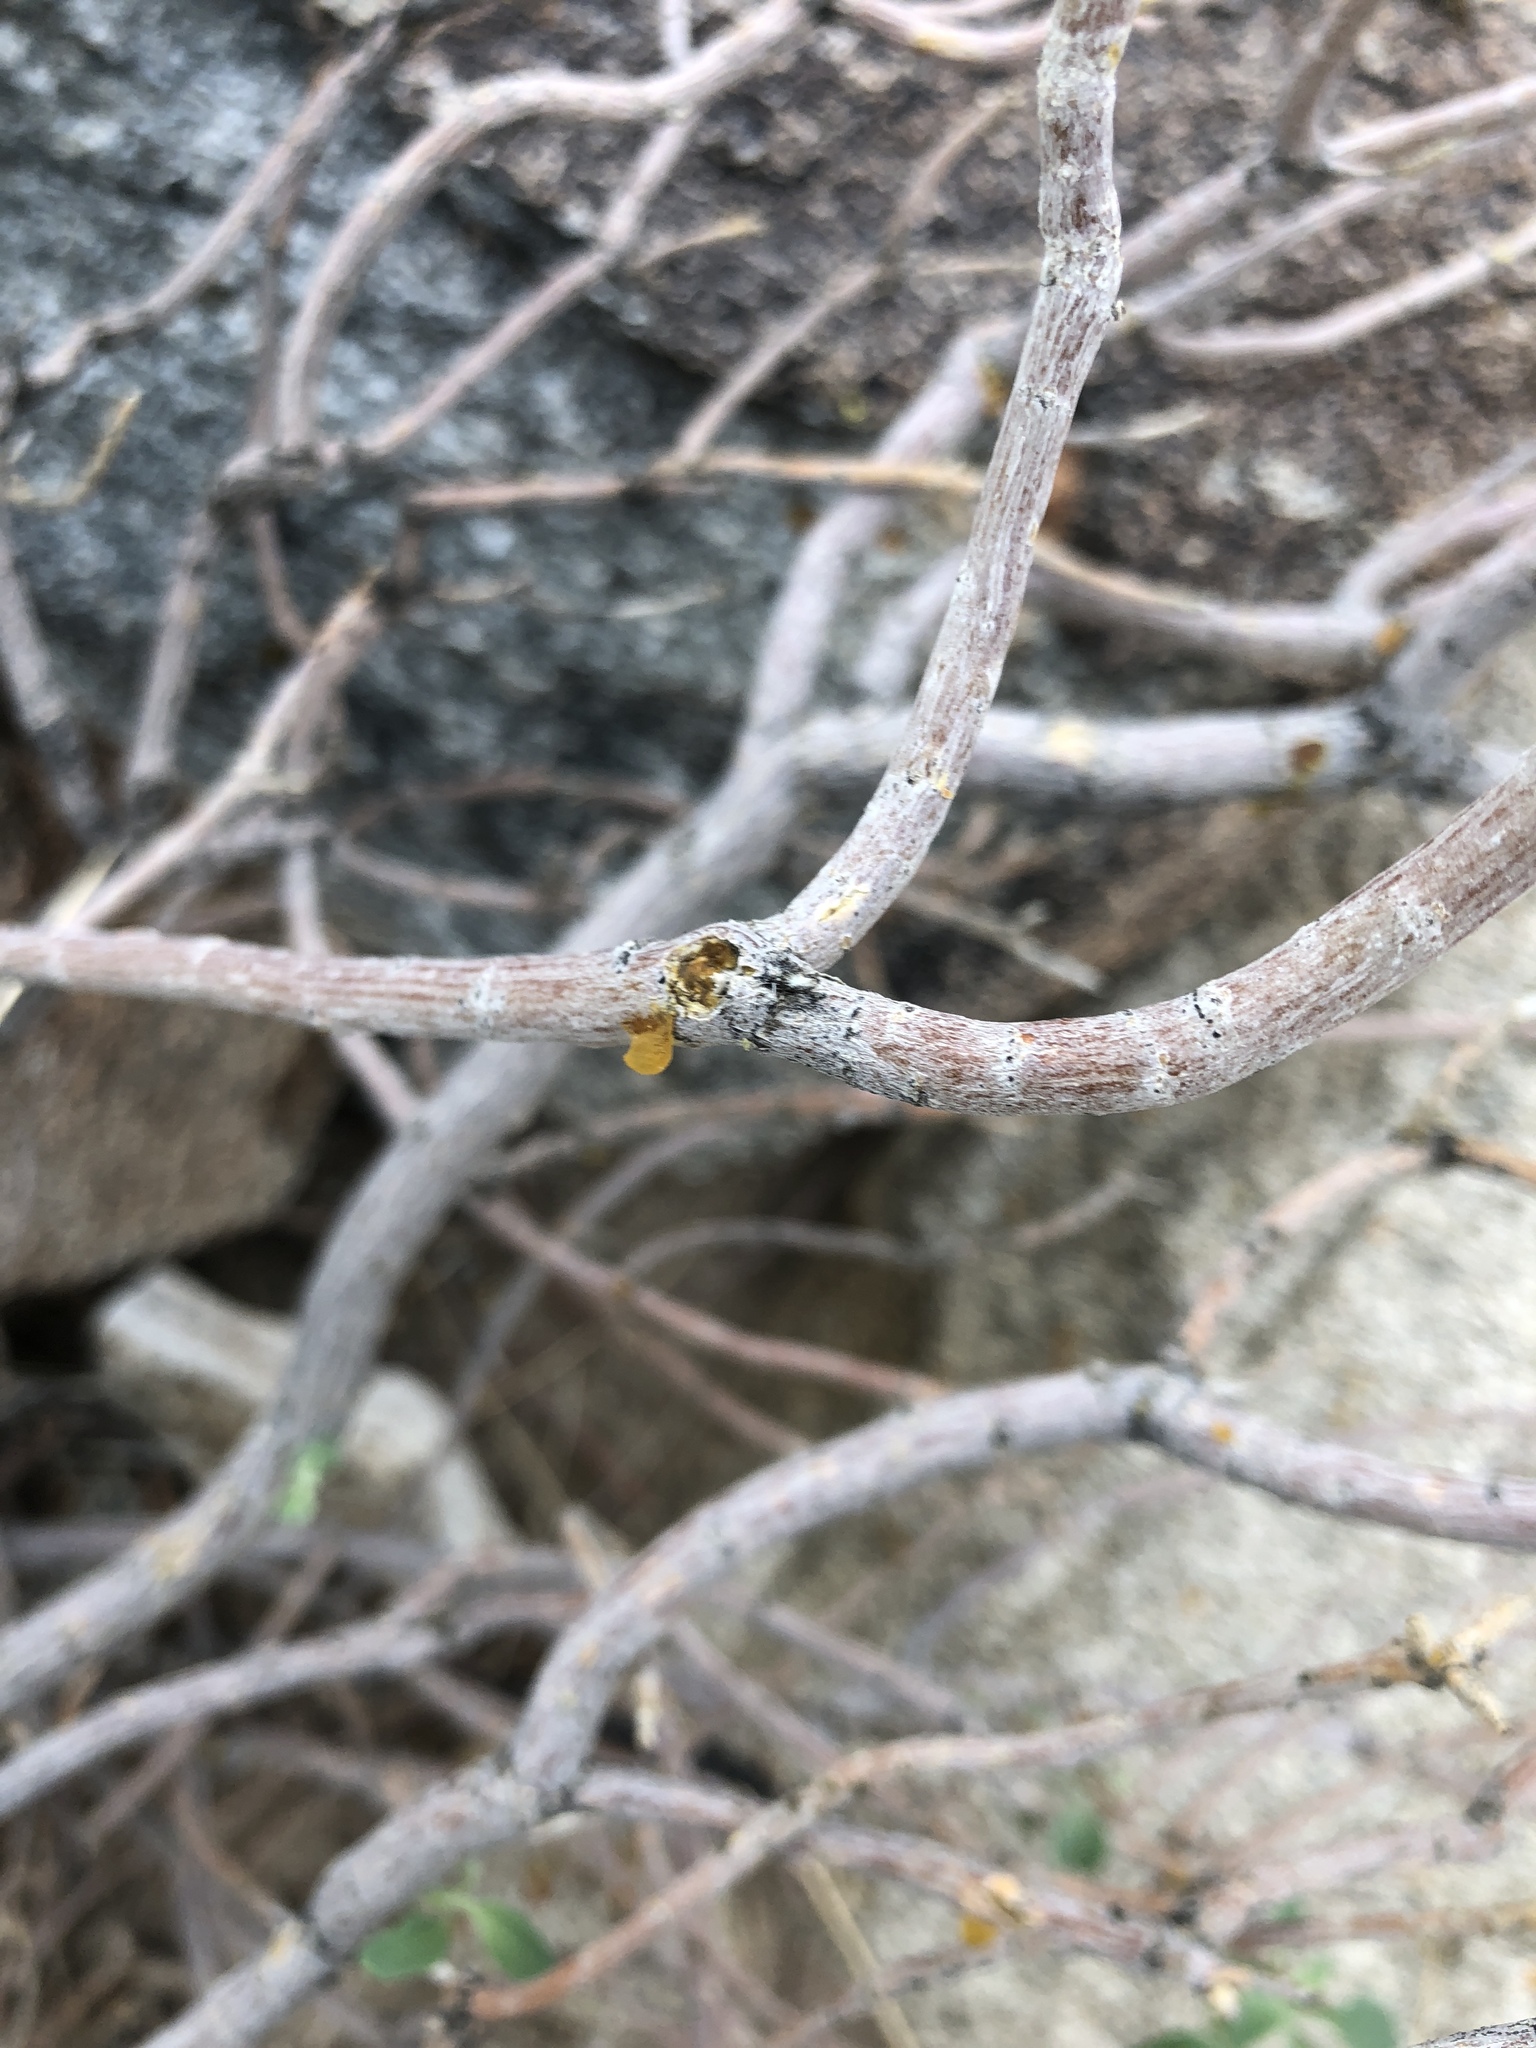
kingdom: Plantae
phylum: Tracheophyta
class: Magnoliopsida
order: Asterales
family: Asteraceae
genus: Encelia
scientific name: Encelia farinosa
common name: Brittlebush
